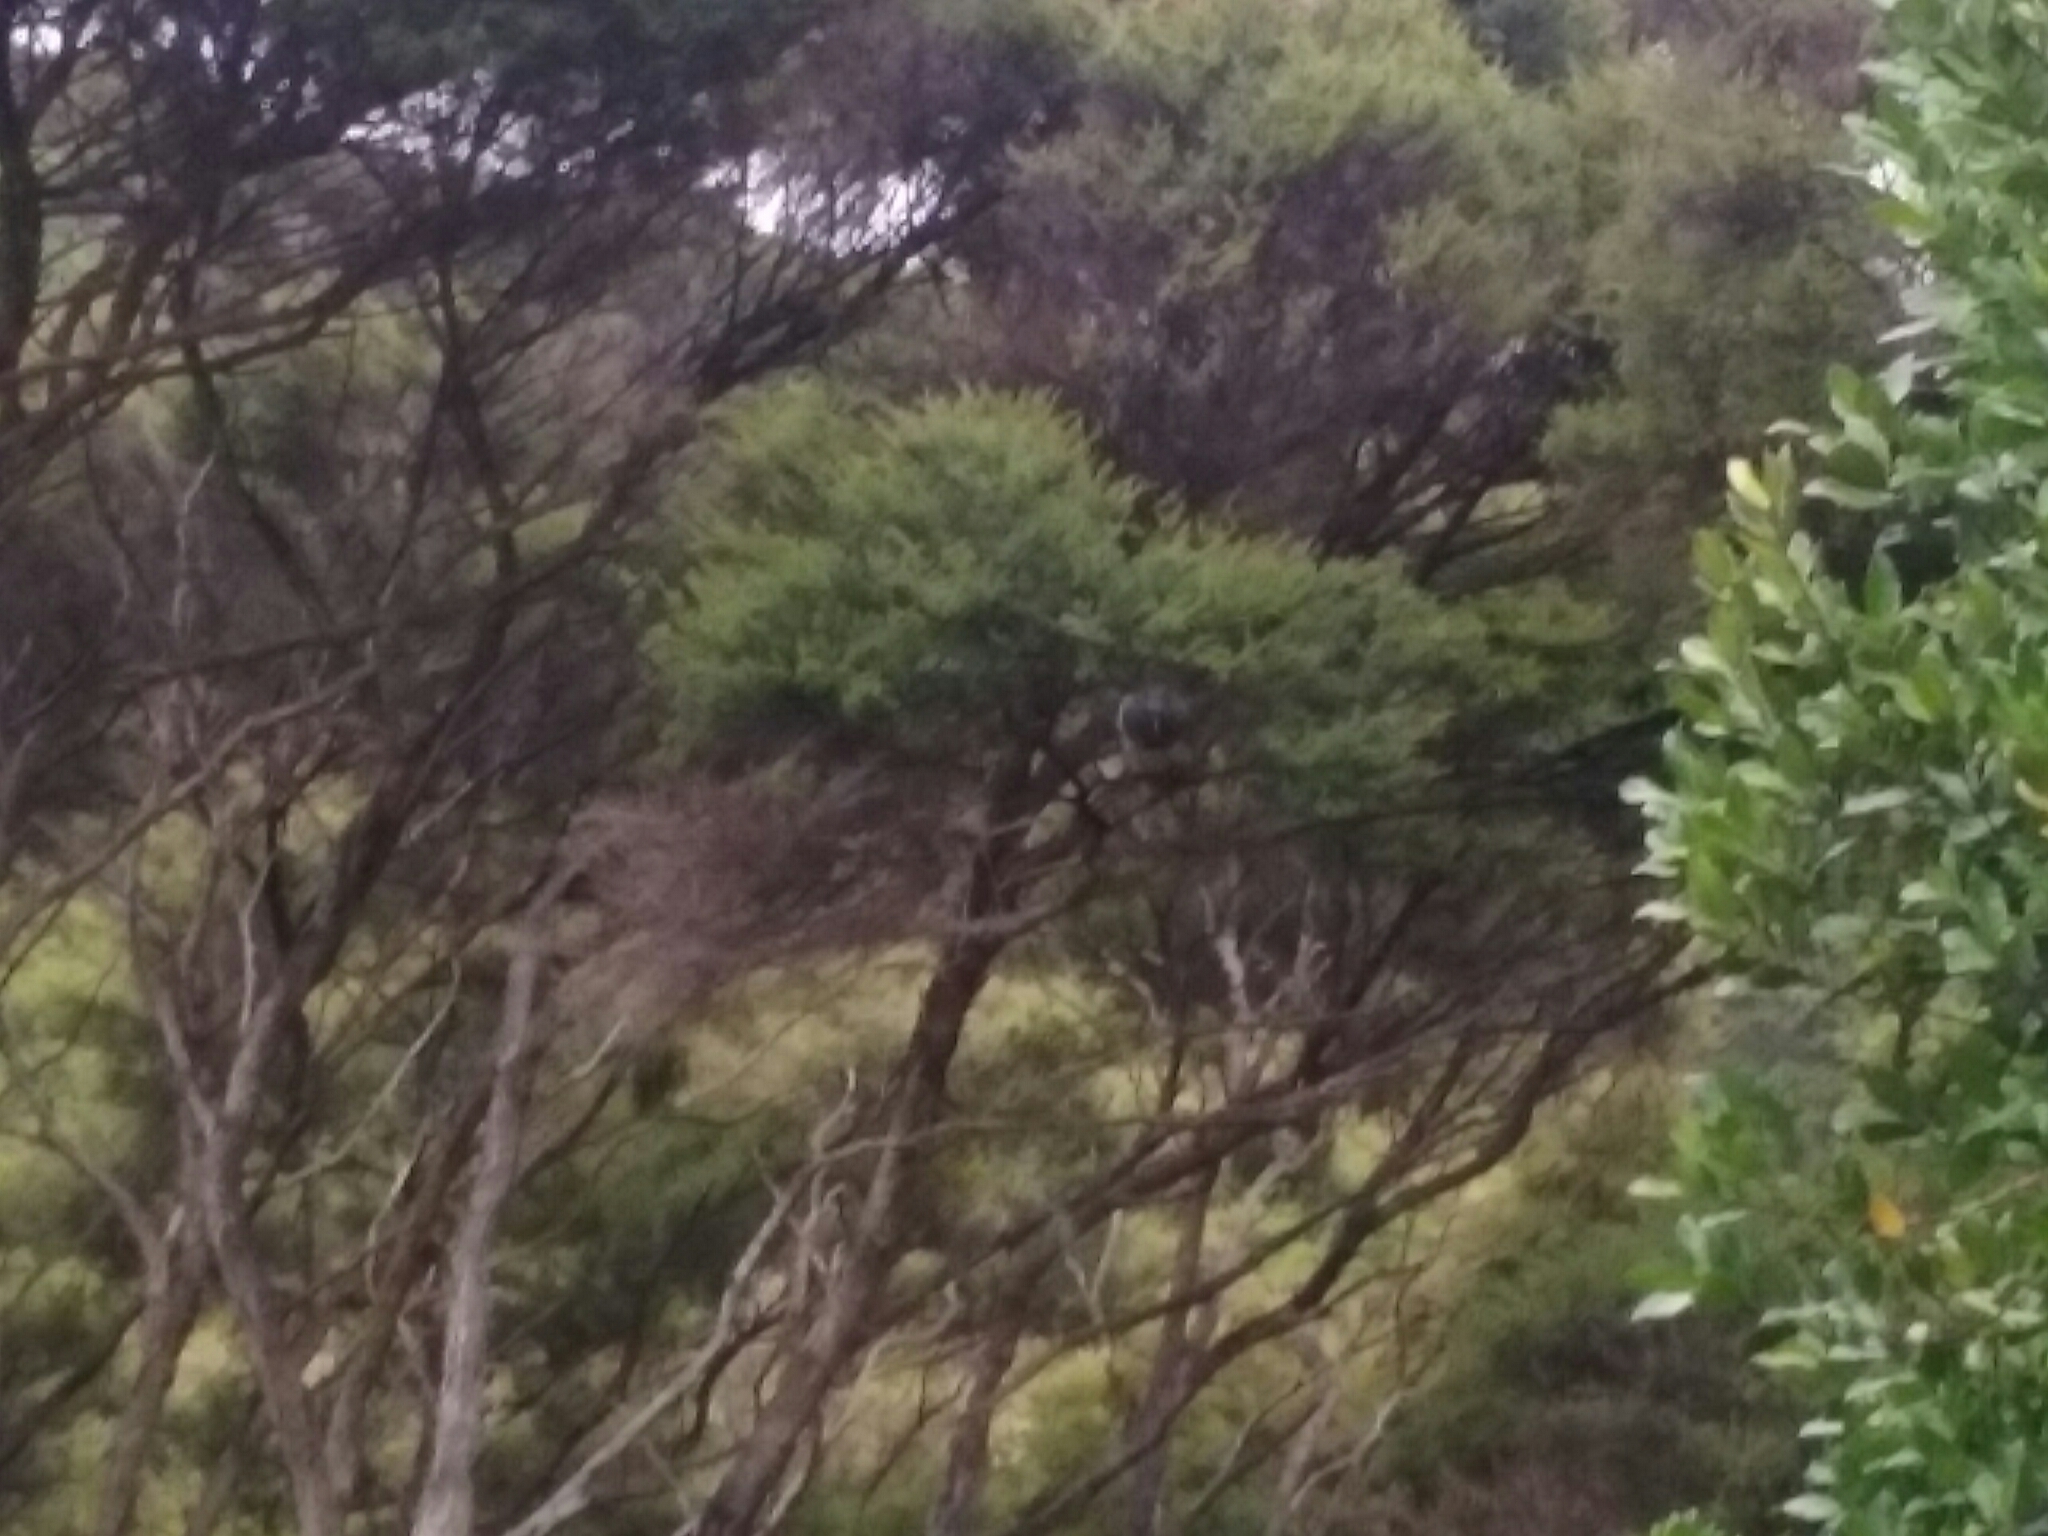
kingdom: Animalia
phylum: Chordata
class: Aves
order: Columbiformes
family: Columbidae
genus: Hemiphaga
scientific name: Hemiphaga novaeseelandiae
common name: New zealand pigeon
